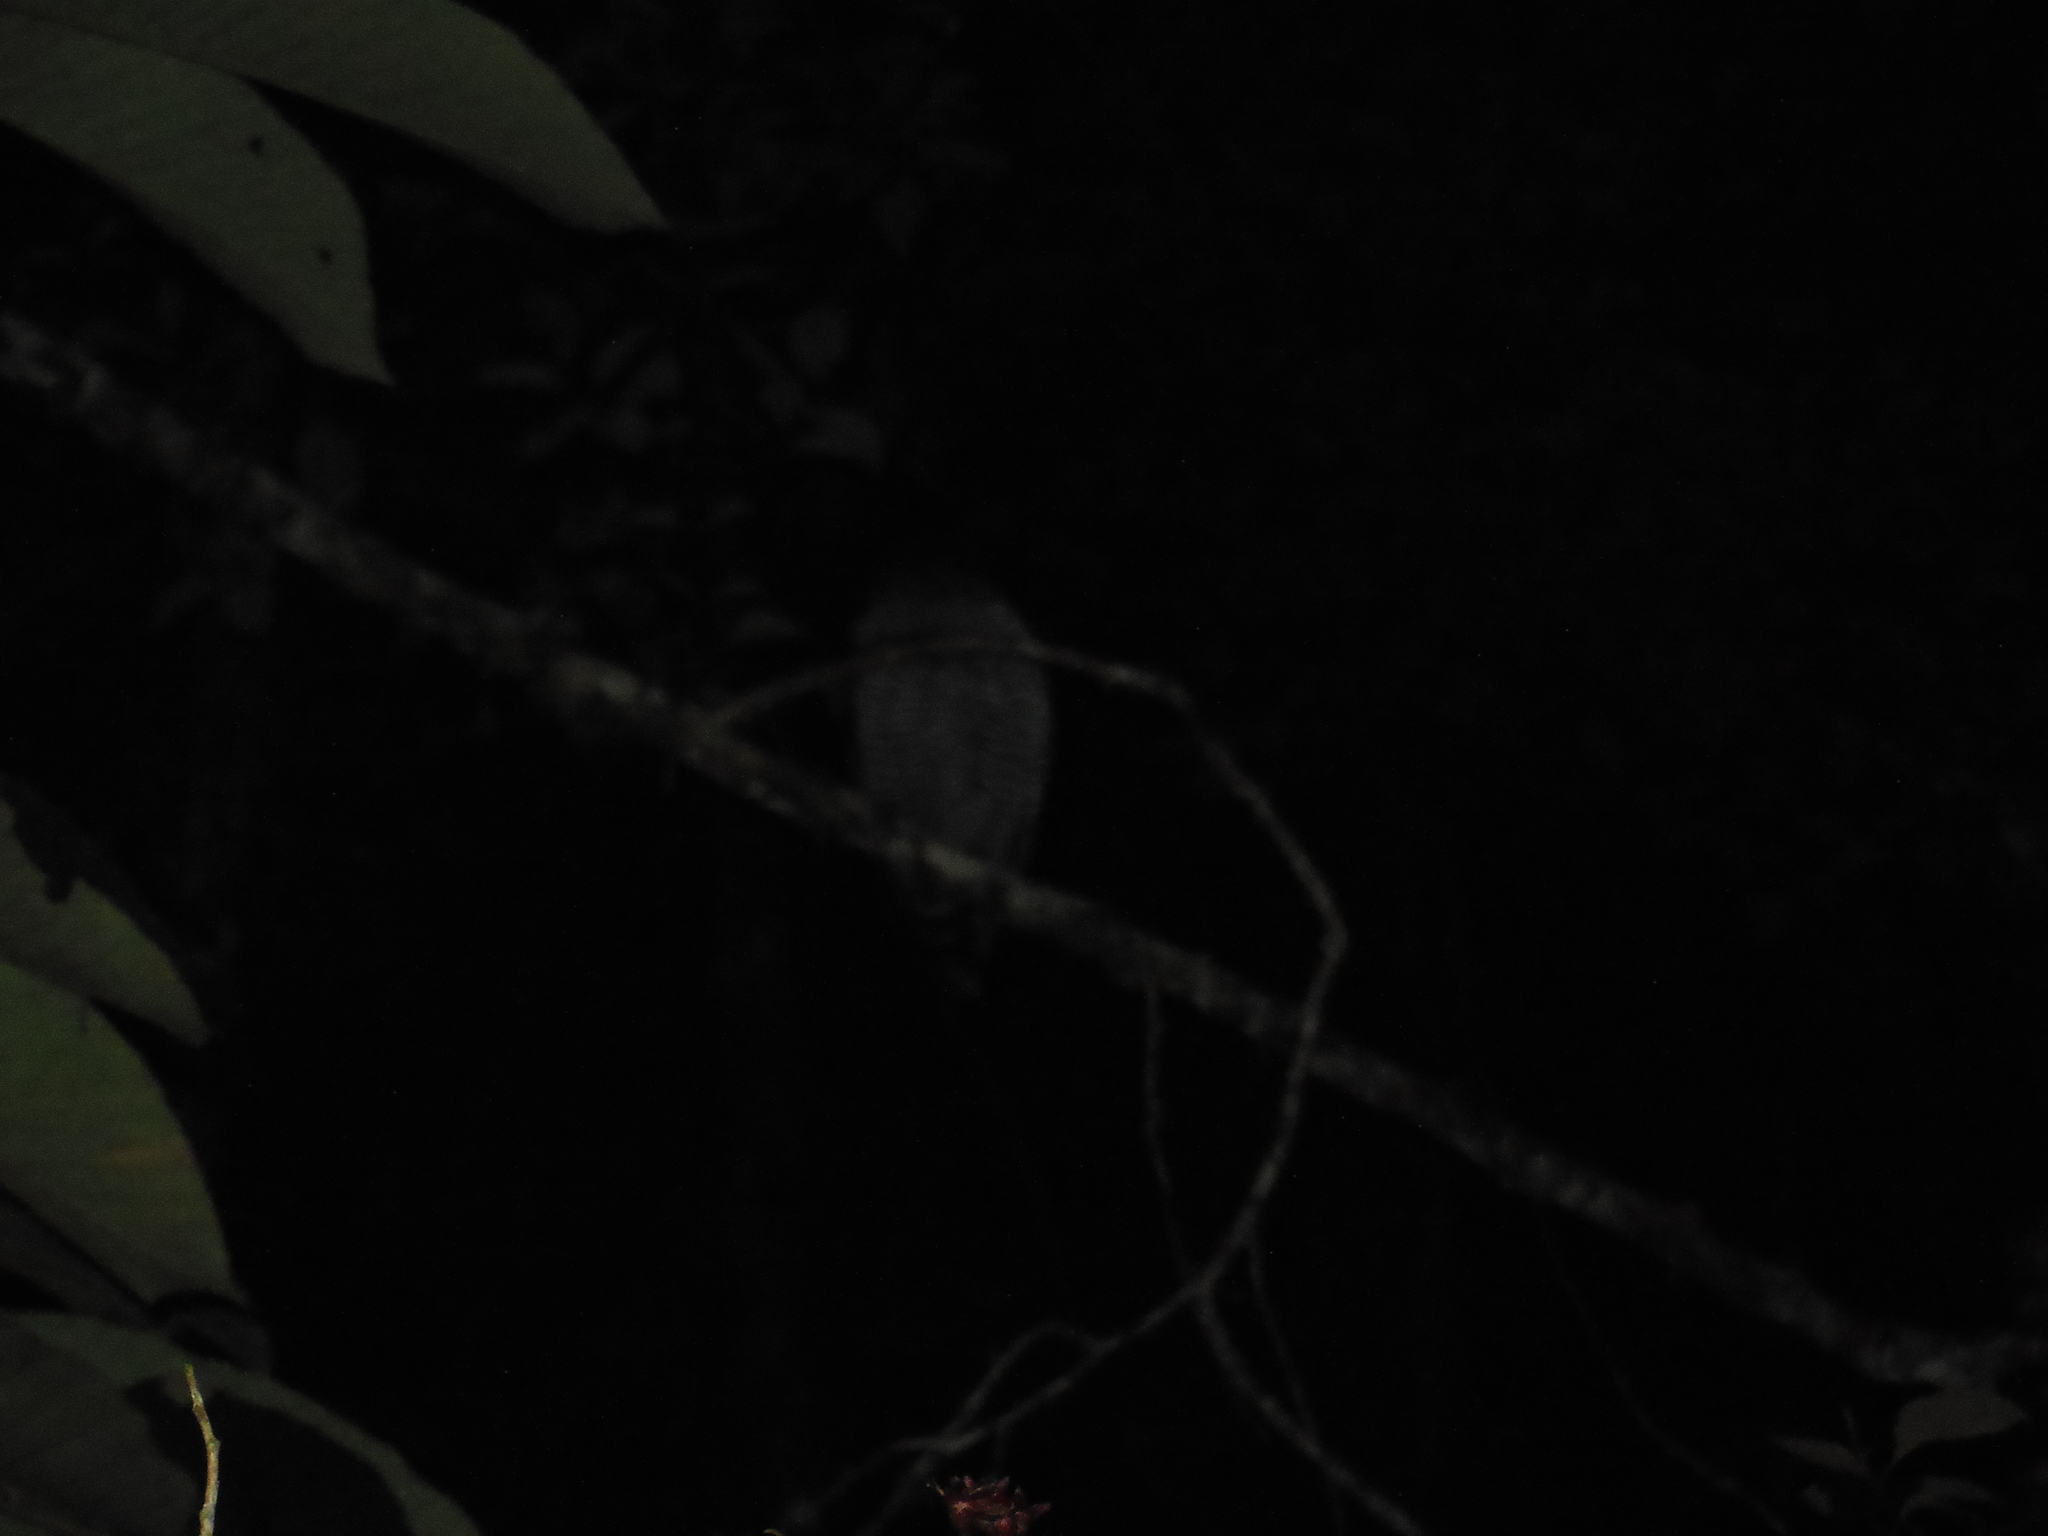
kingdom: Animalia
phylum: Chordata
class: Aves
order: Strigiformes
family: Strigidae
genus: Strix
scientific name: Strix huhula
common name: Black-banded owl
